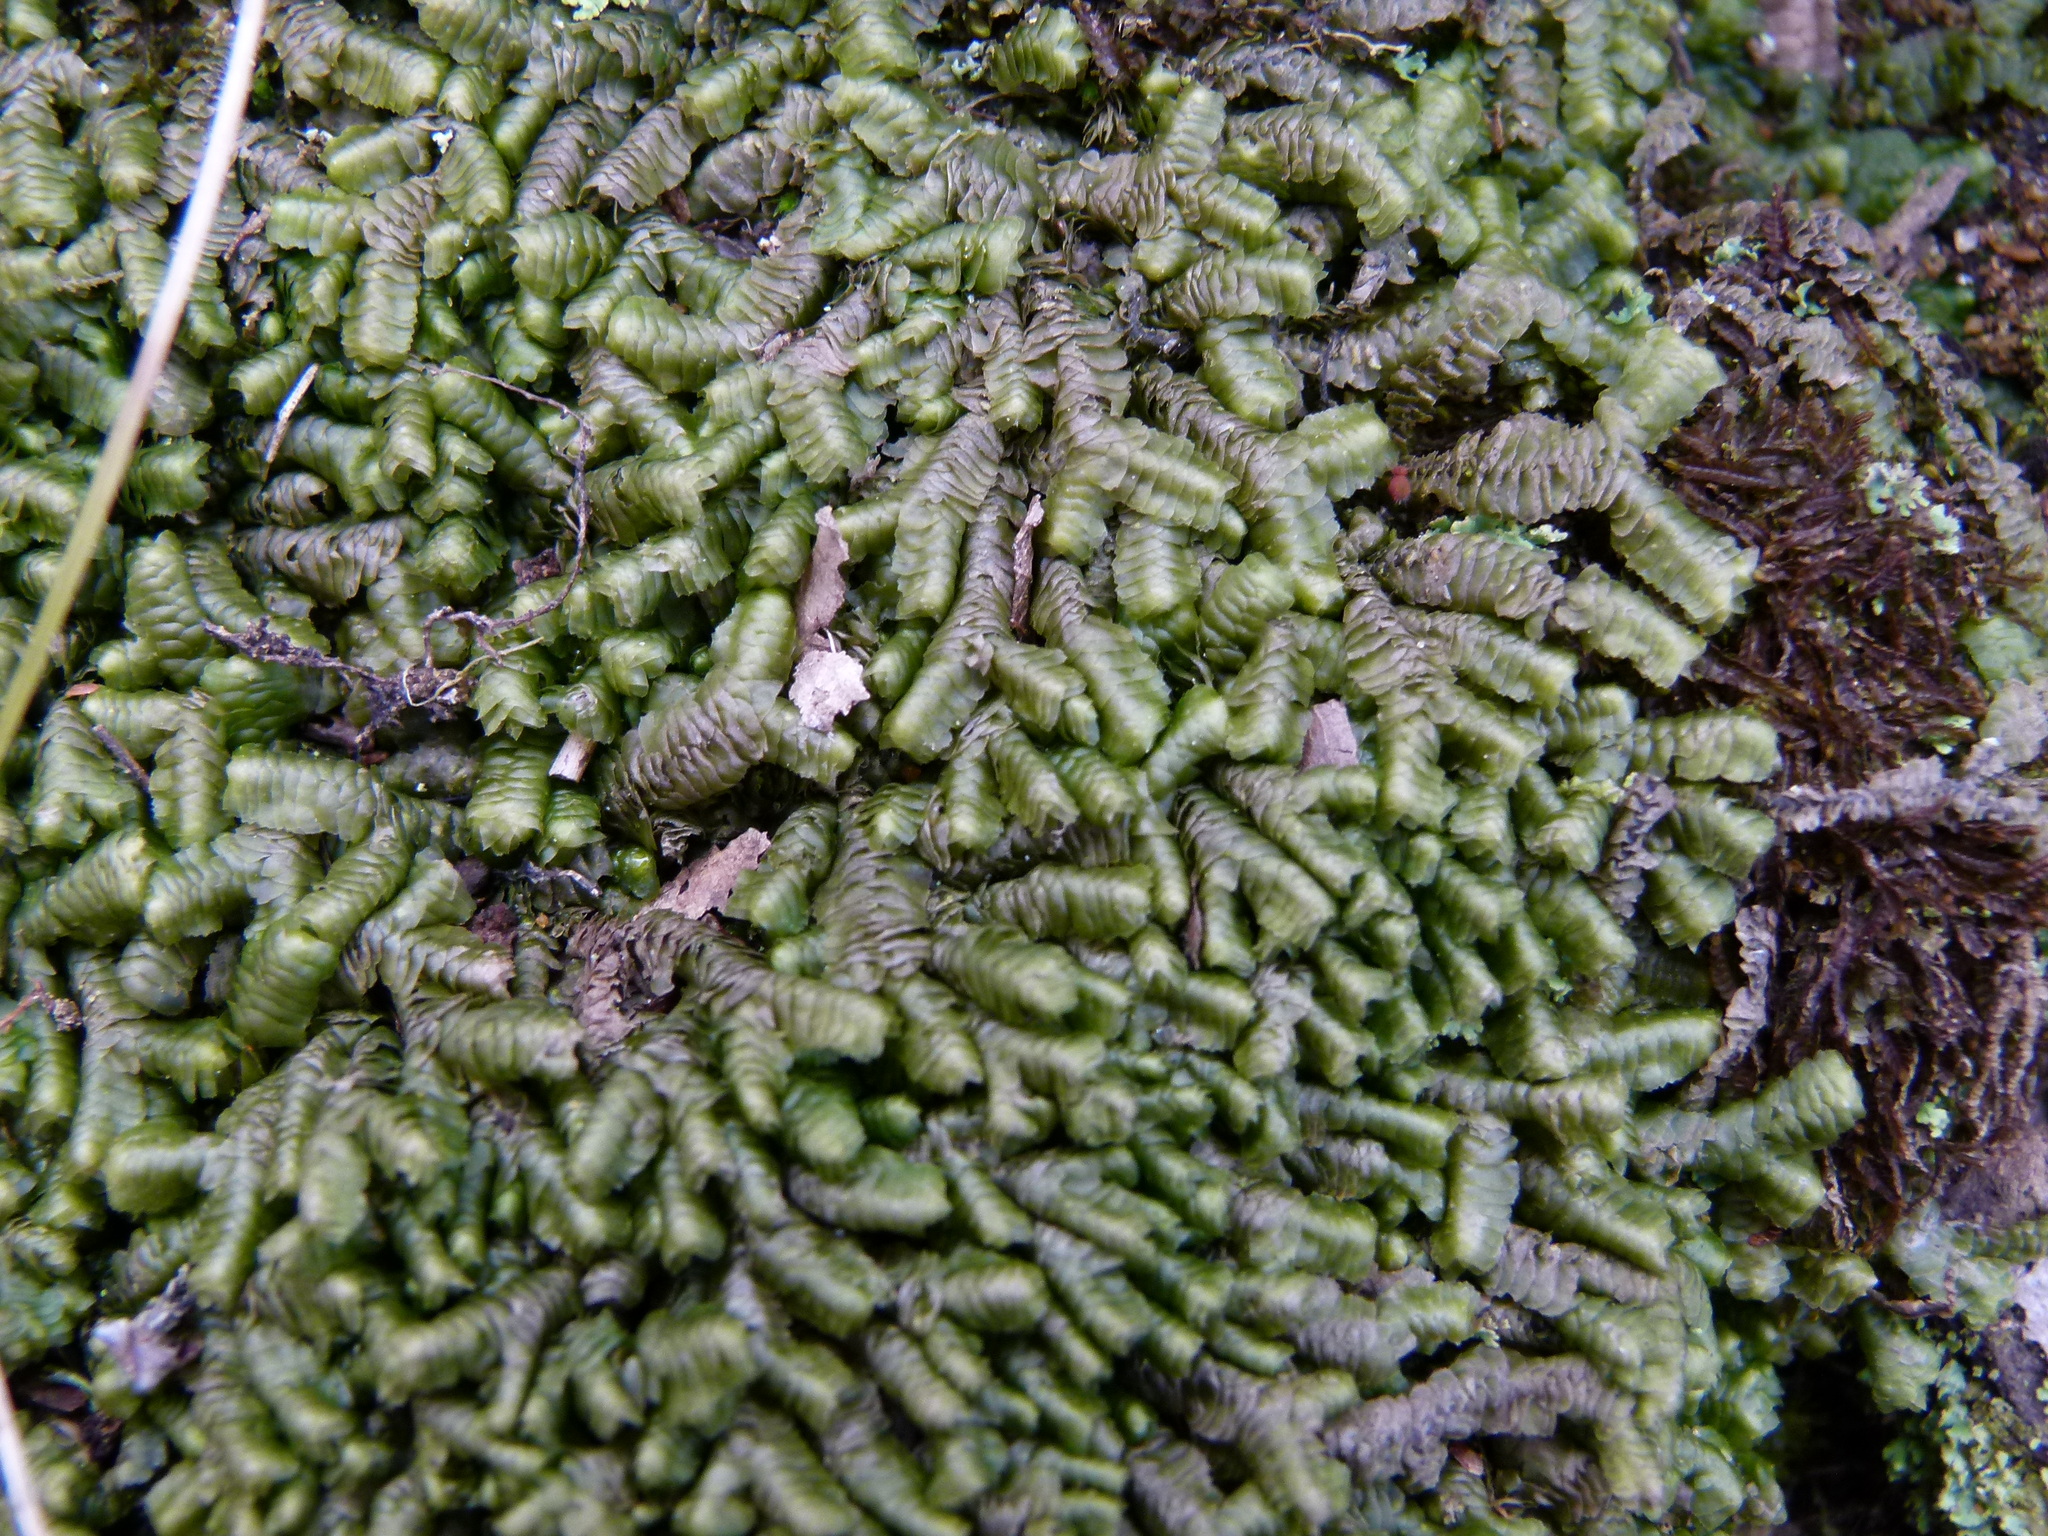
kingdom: Plantae
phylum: Marchantiophyta
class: Jungermanniopsida
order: Jungermanniales
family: Lepidoziaceae
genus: Bazzania
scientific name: Bazzania trilobata
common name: Three-lobed whipwort
